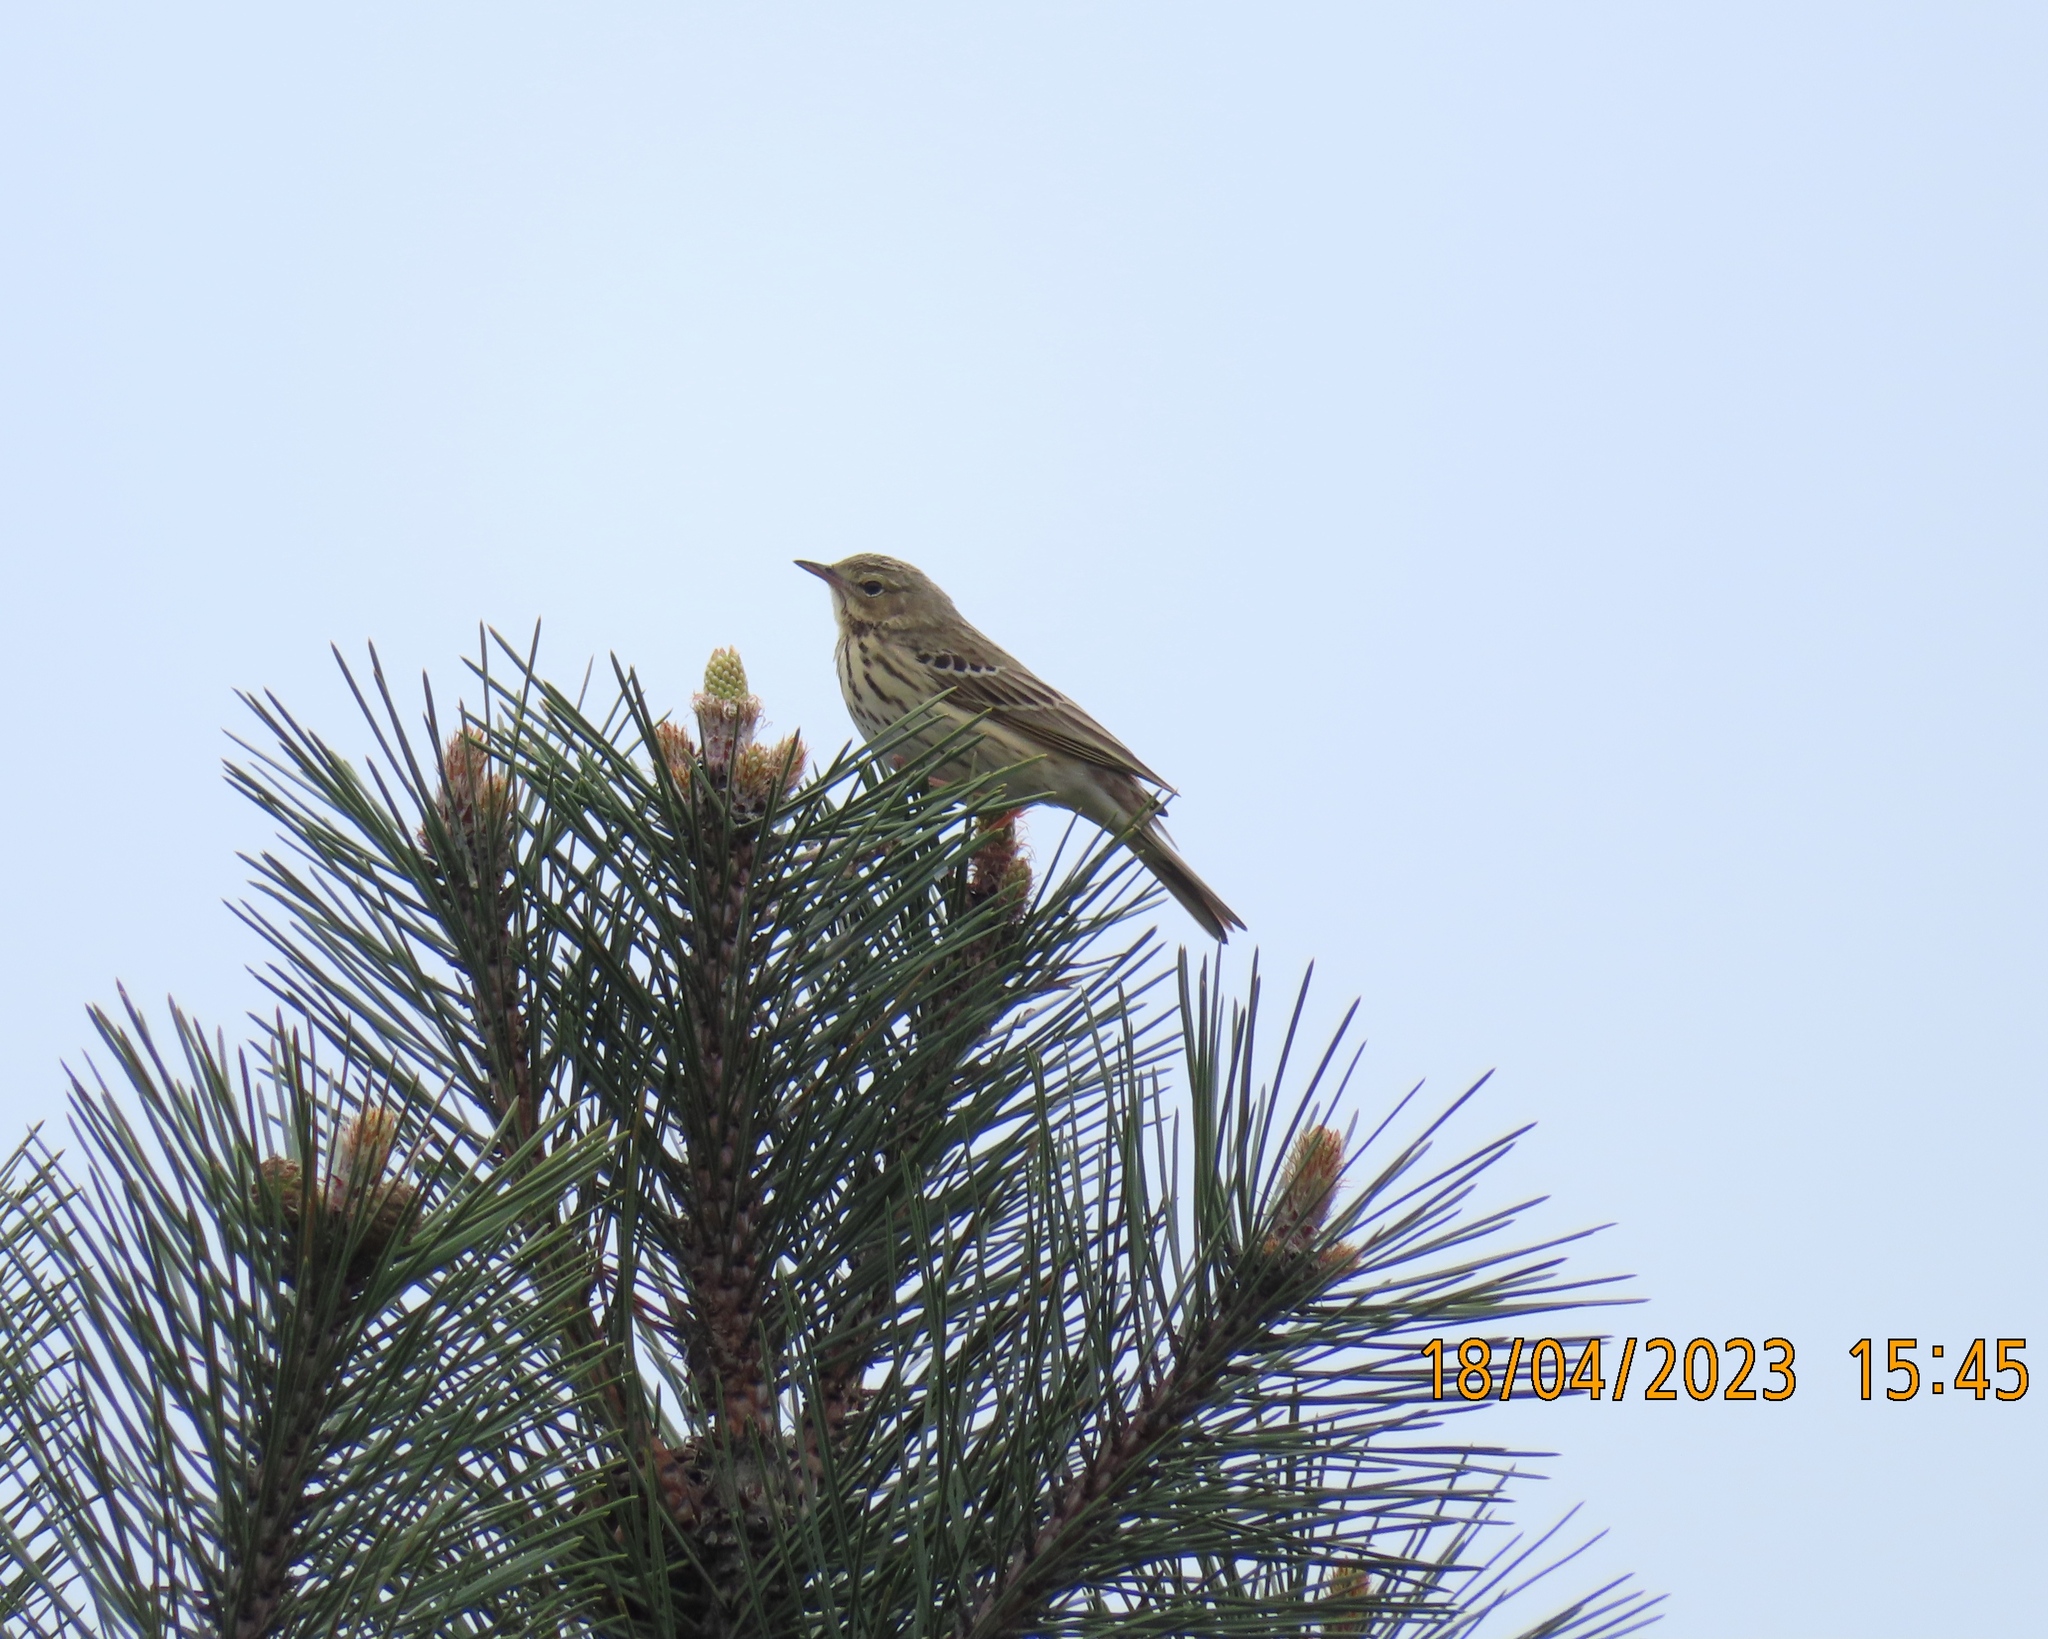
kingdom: Animalia
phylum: Chordata
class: Aves
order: Passeriformes
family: Motacillidae
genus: Anthus
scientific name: Anthus trivialis
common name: Tree pipit
